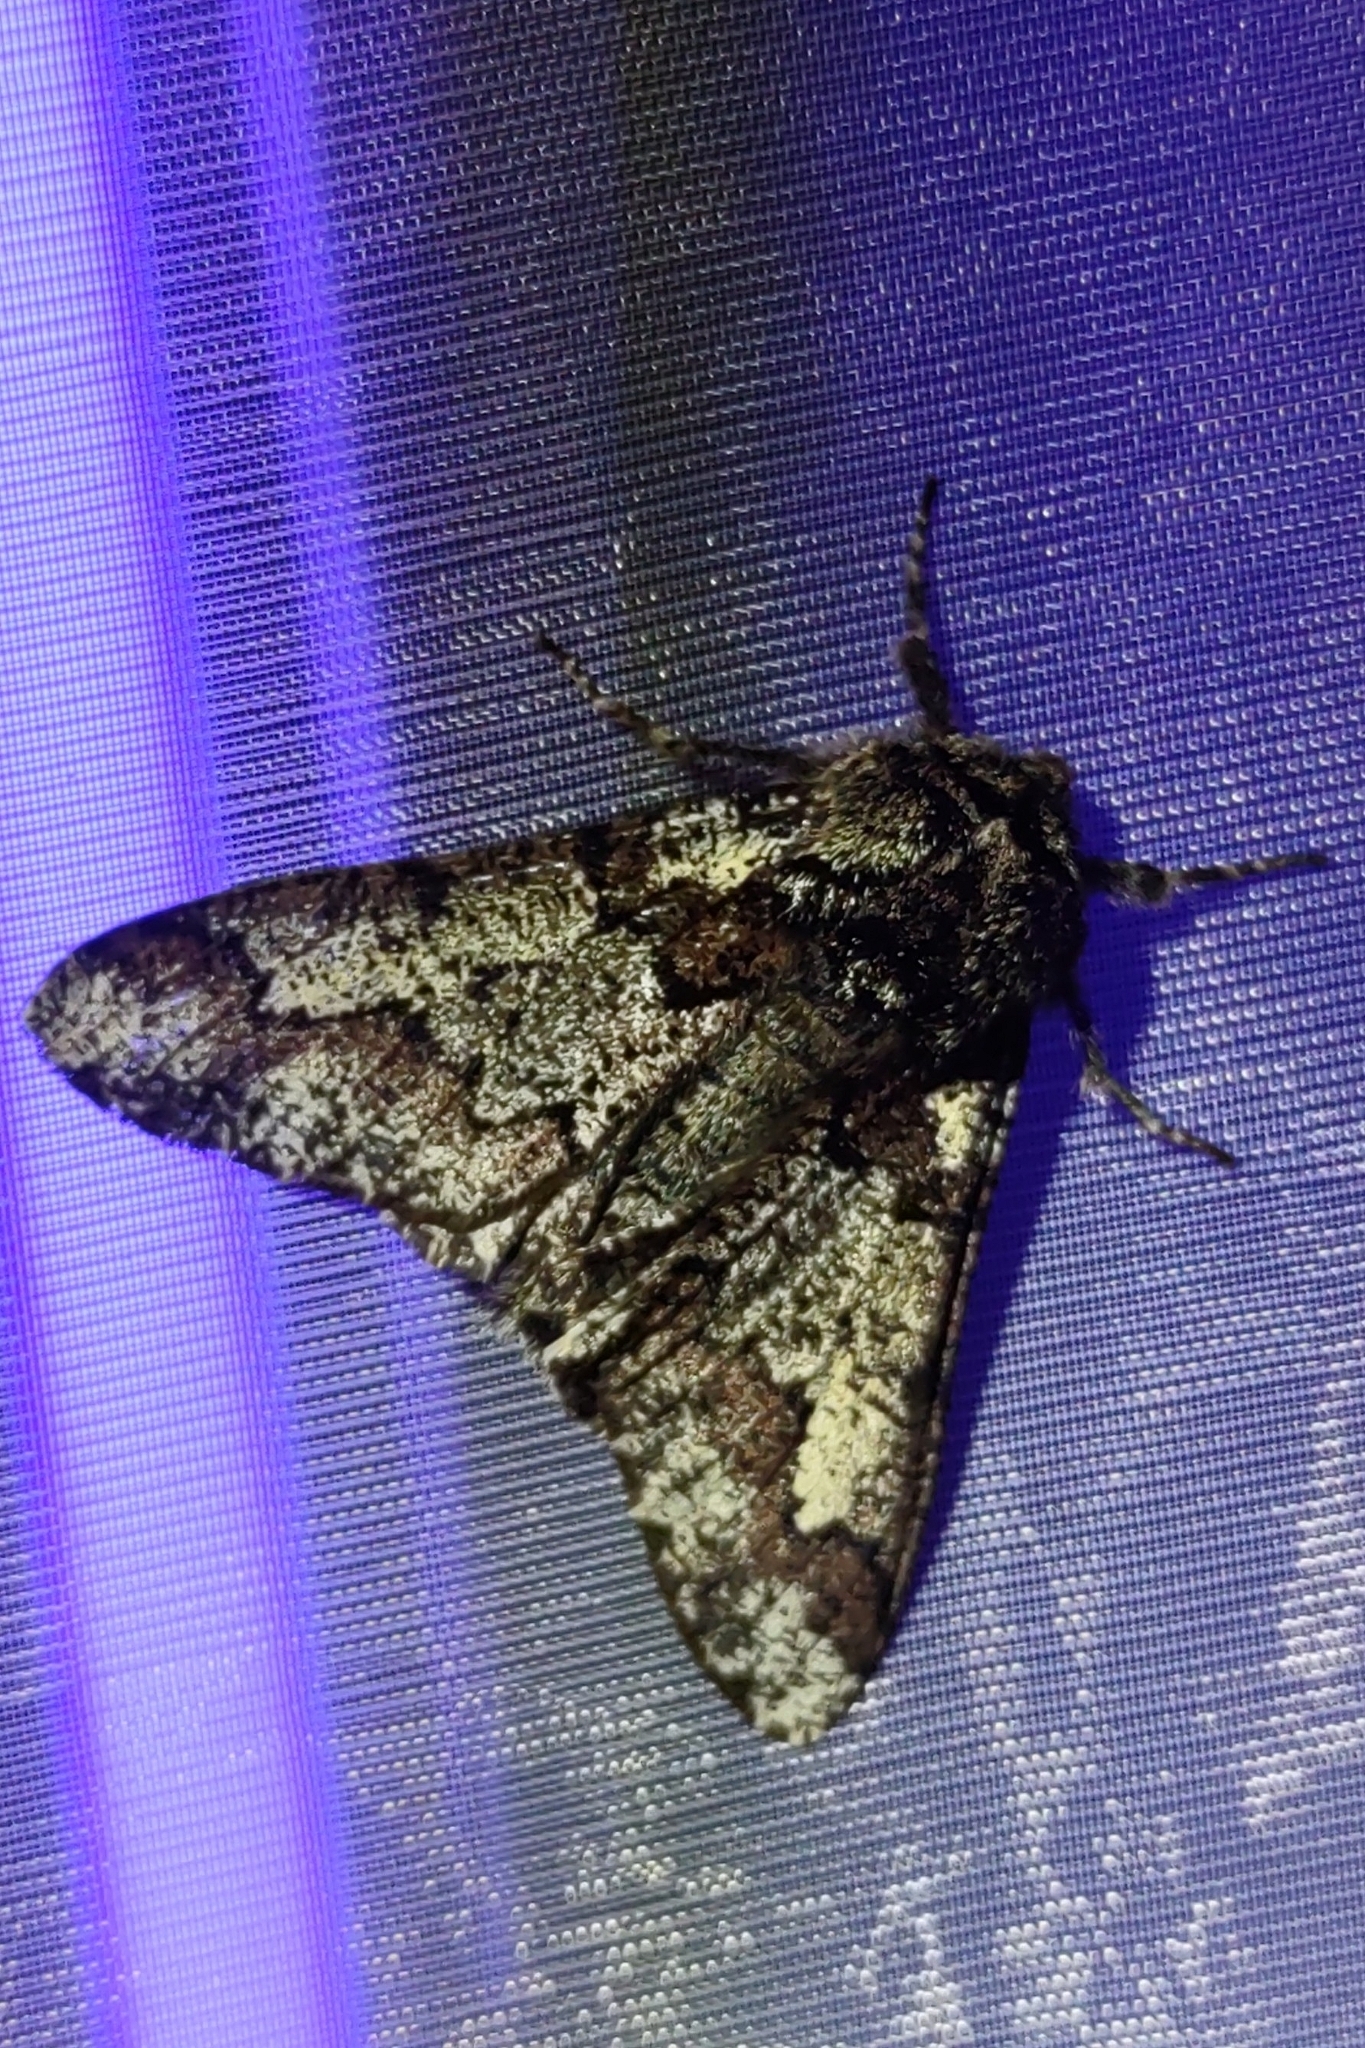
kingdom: Animalia
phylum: Arthropoda
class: Insecta
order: Lepidoptera
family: Geometridae
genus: Biston
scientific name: Biston strataria
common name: Oak beauty
